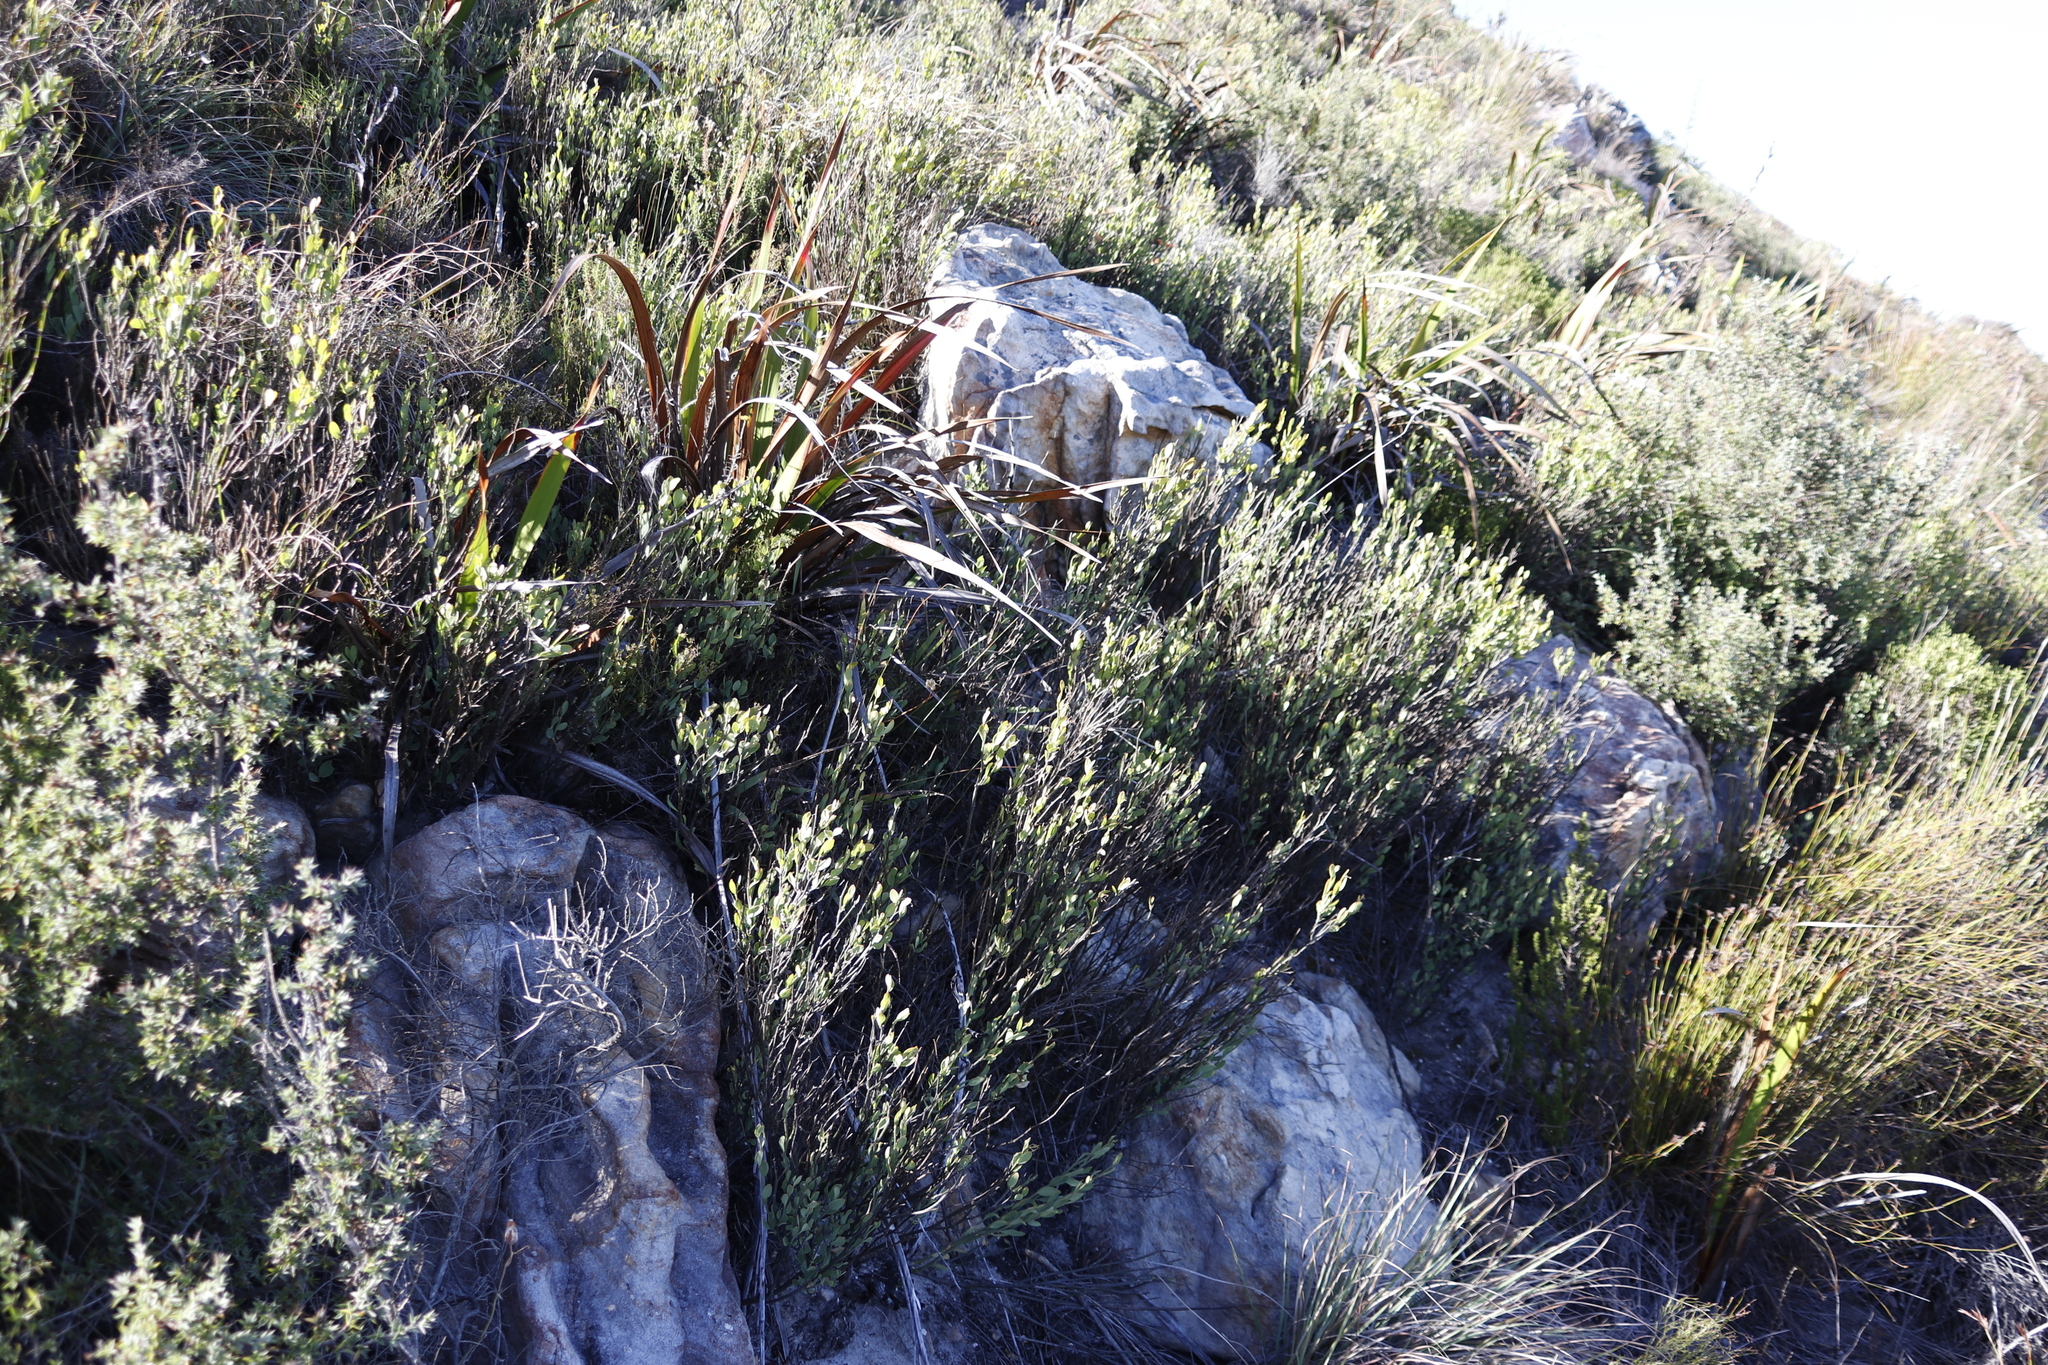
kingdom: Plantae
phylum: Tracheophyta
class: Magnoliopsida
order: Solanales
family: Montiniaceae
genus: Montinia
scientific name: Montinia caryophyllacea
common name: Wild clove-bush
